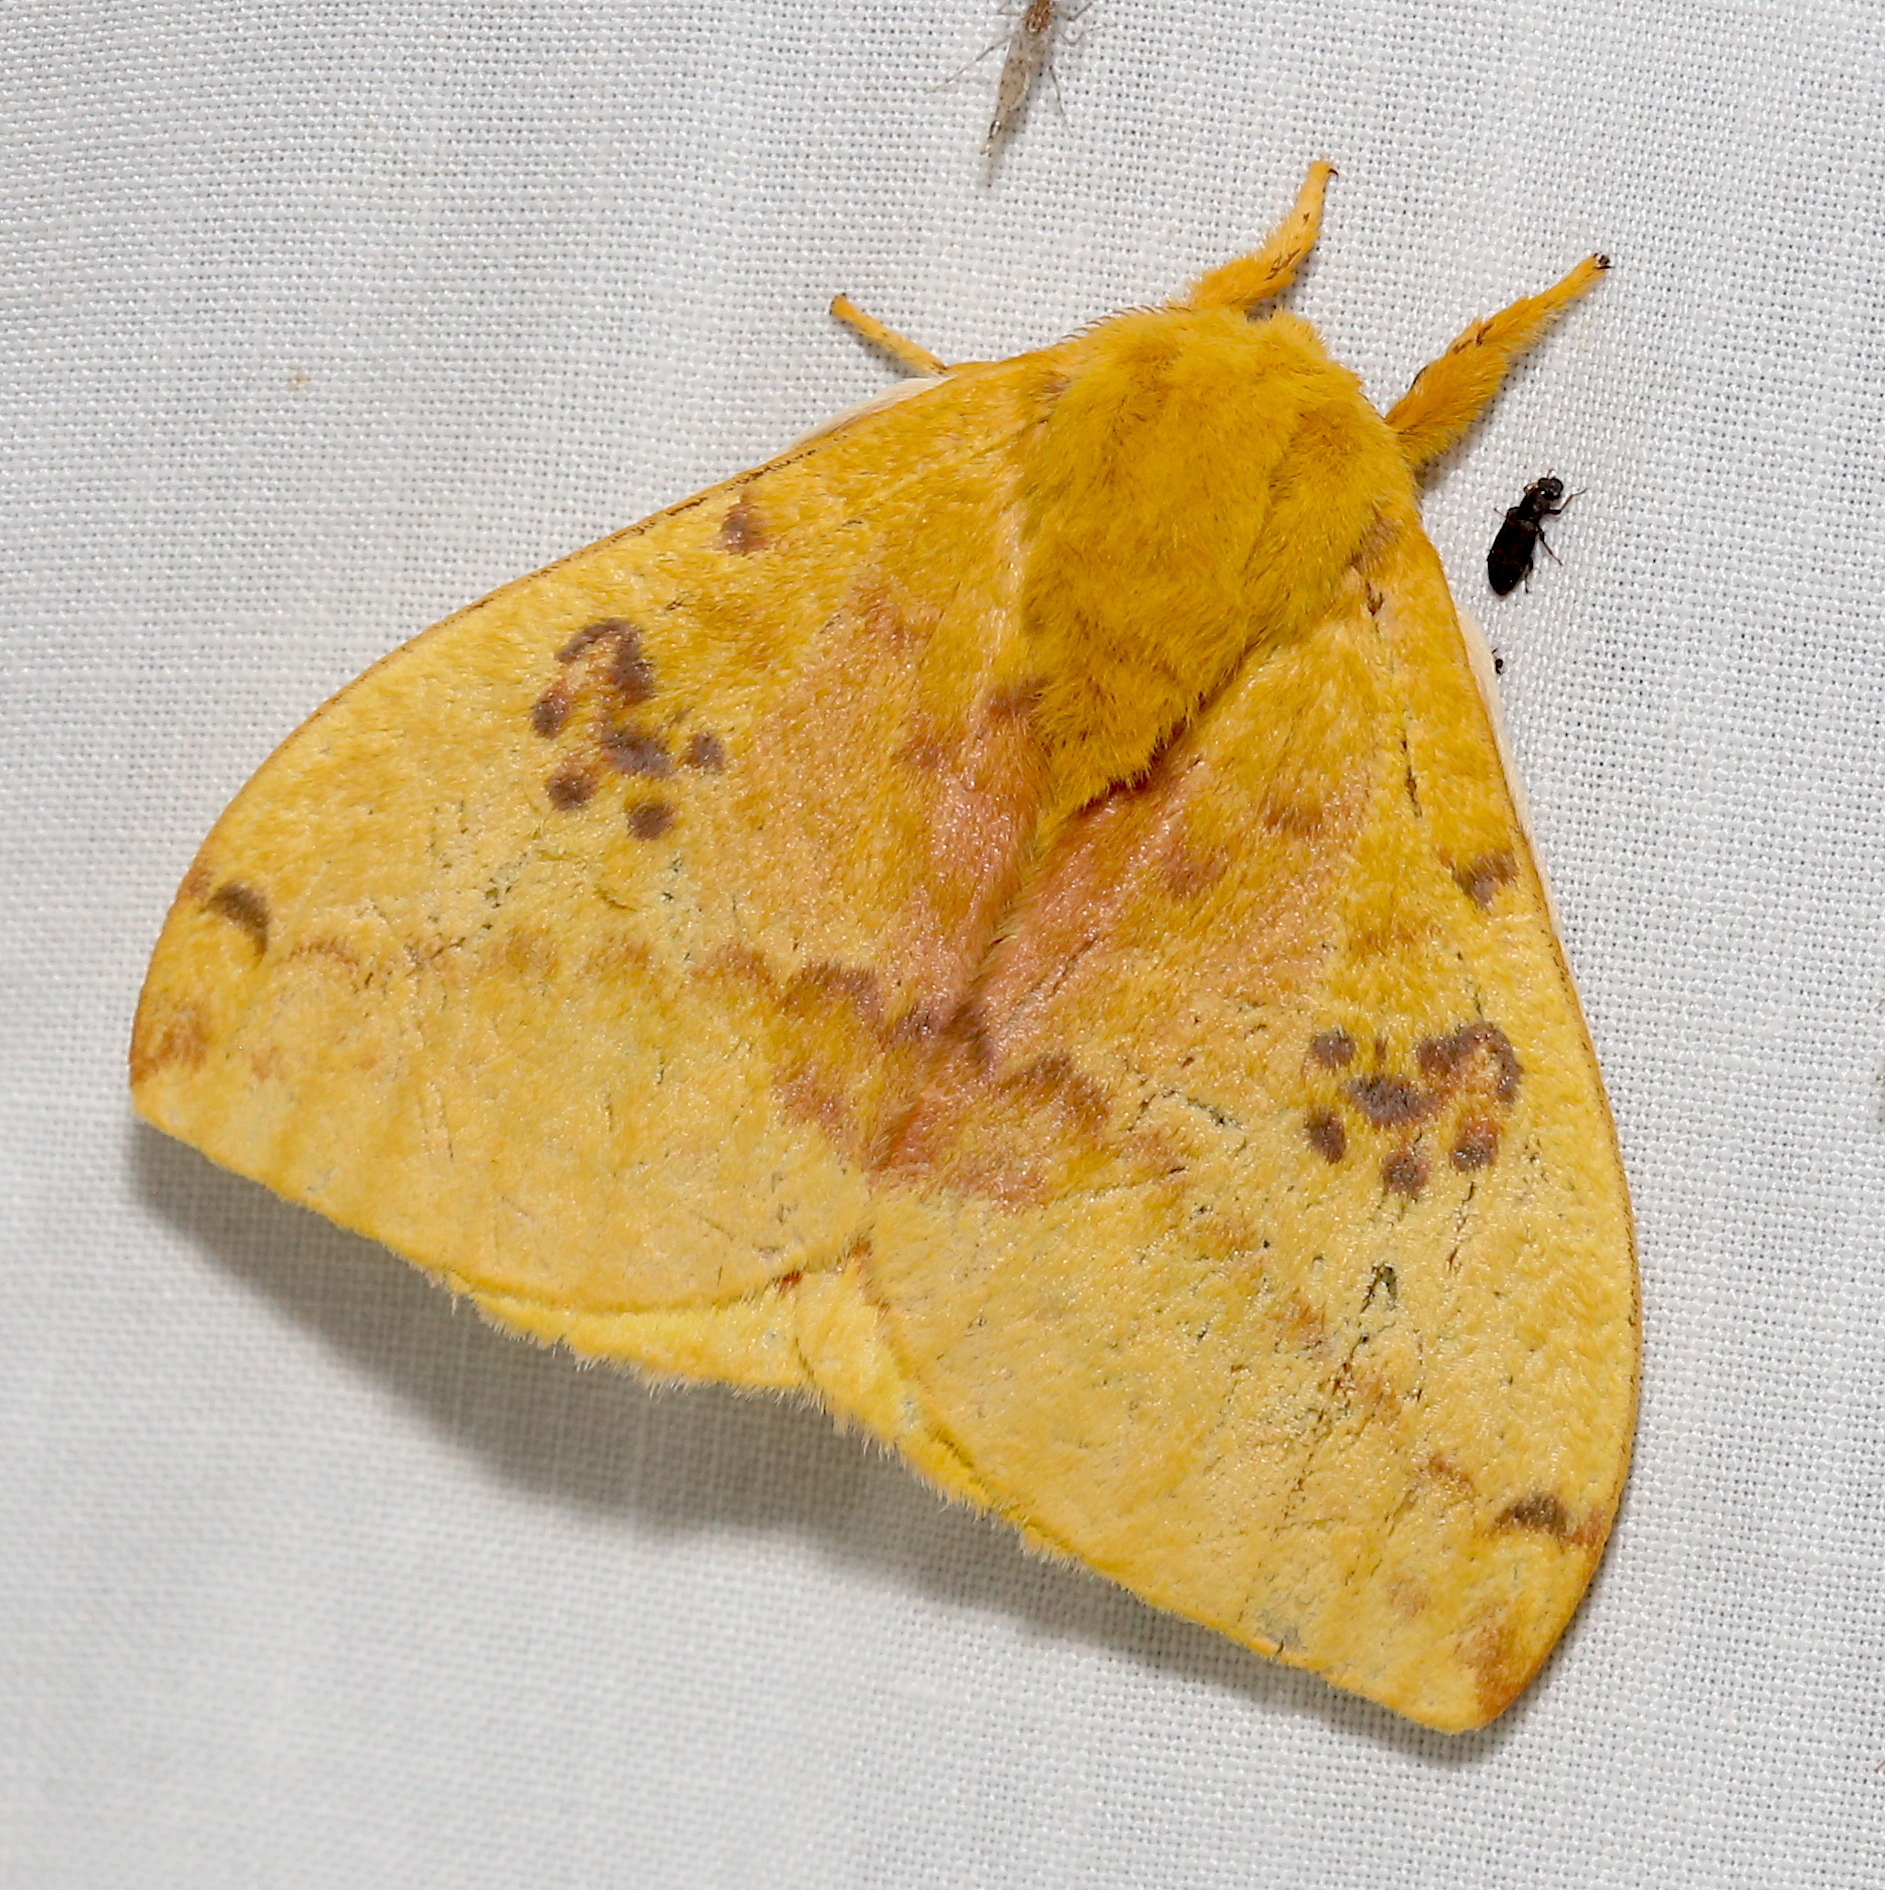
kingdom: Animalia
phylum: Arthropoda
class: Insecta
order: Lepidoptera
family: Saturniidae
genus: Automeris
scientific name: Automeris io
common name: Io moth
